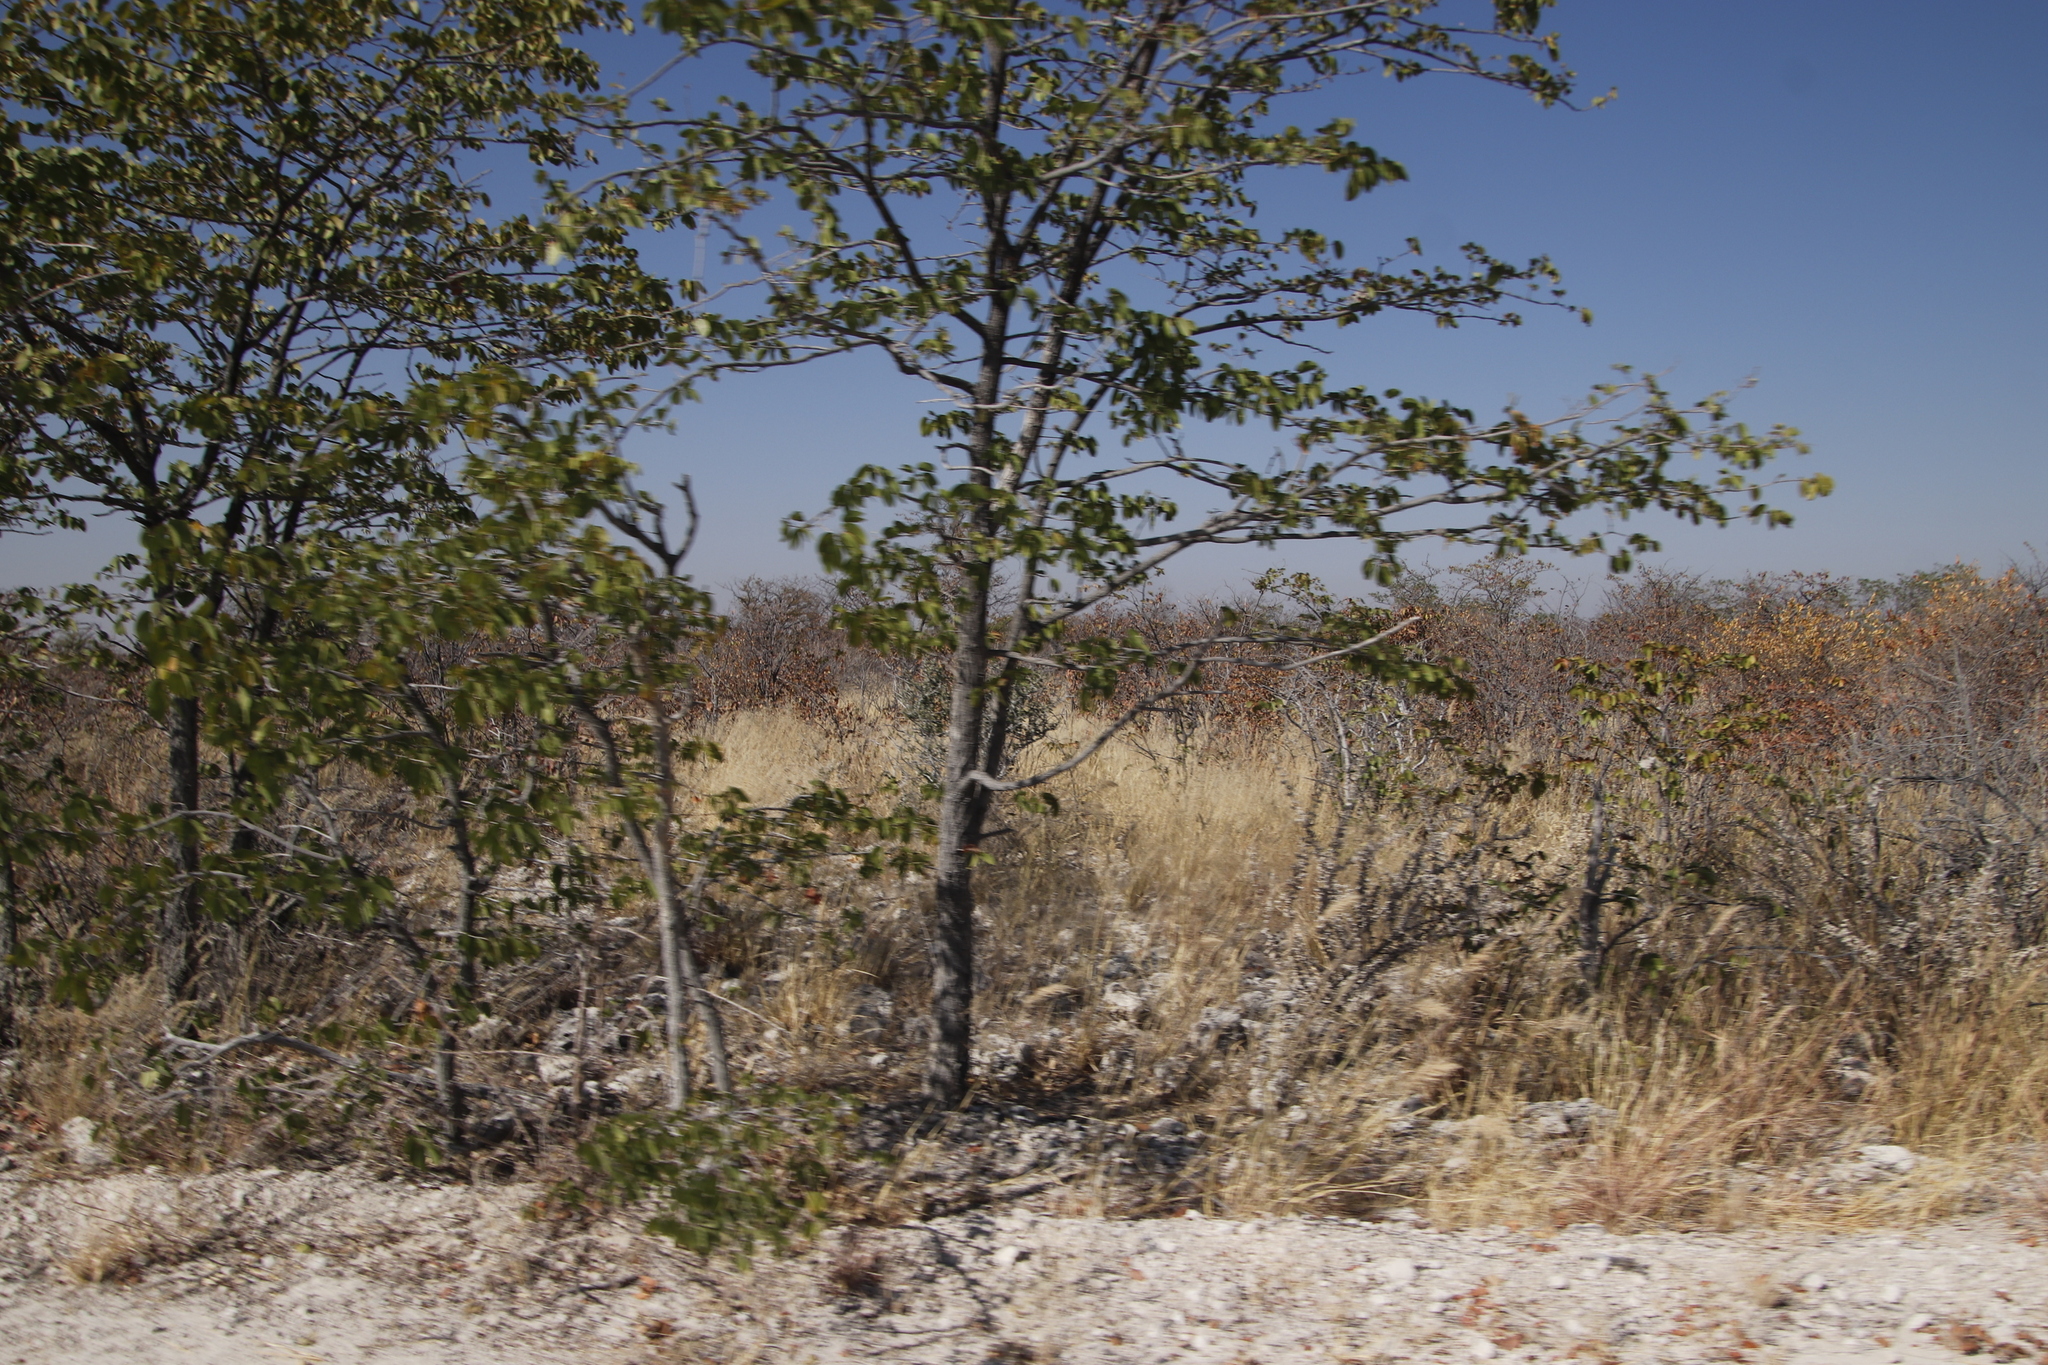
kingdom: Plantae
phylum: Tracheophyta
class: Magnoliopsida
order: Fabales
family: Fabaceae
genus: Colophospermum
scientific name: Colophospermum mopane
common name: Mopane
